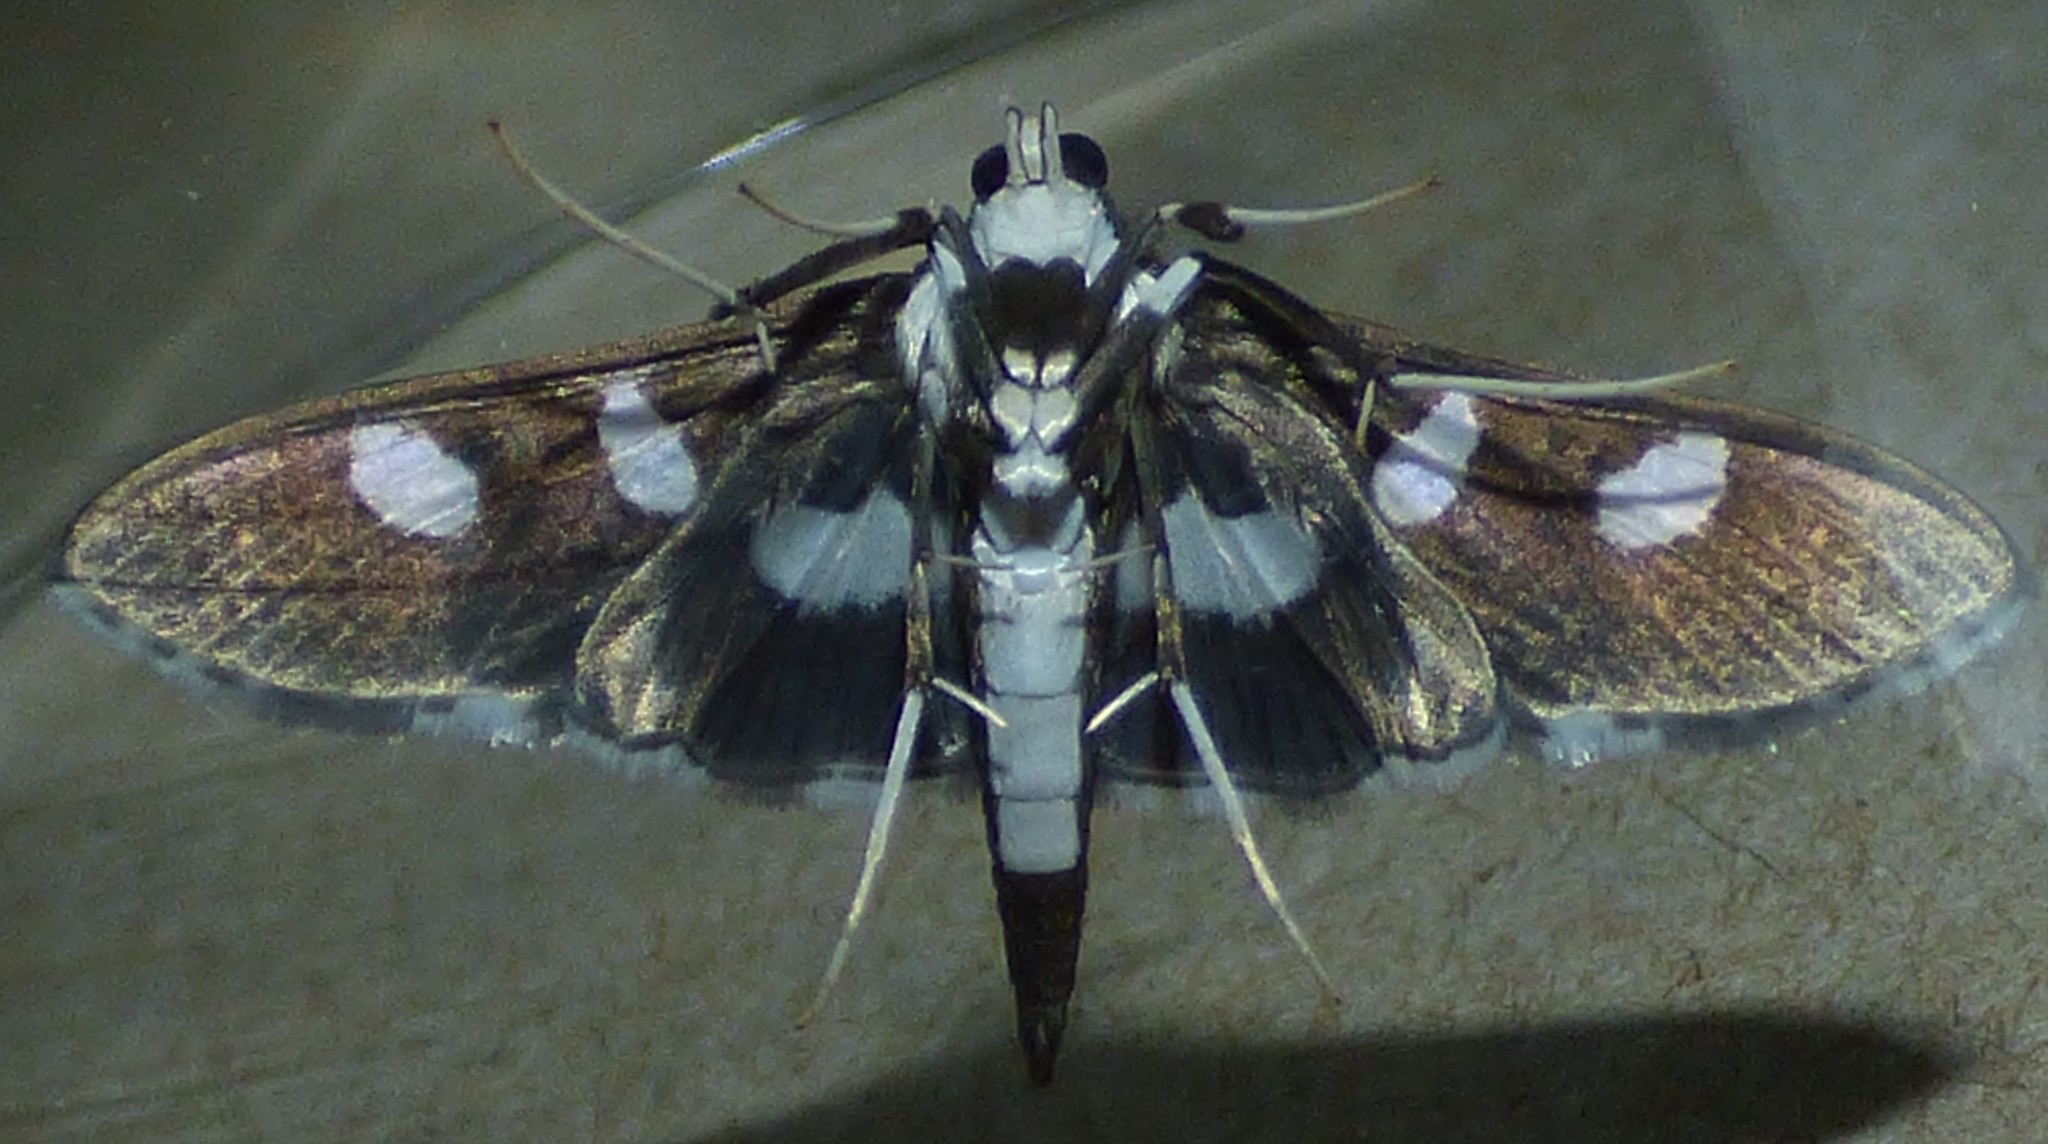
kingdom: Animalia
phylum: Arthropoda
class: Insecta
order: Lepidoptera
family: Crambidae
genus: Desmia
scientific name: Desmia funeralis
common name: Grape leaf folder moth
